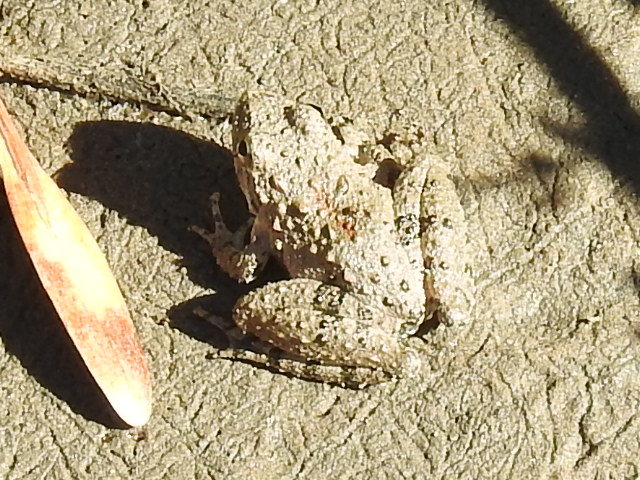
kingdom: Animalia
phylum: Chordata
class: Amphibia
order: Anura
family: Hylidae
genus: Acris
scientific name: Acris blanchardi
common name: Blanchard's cricket frog
